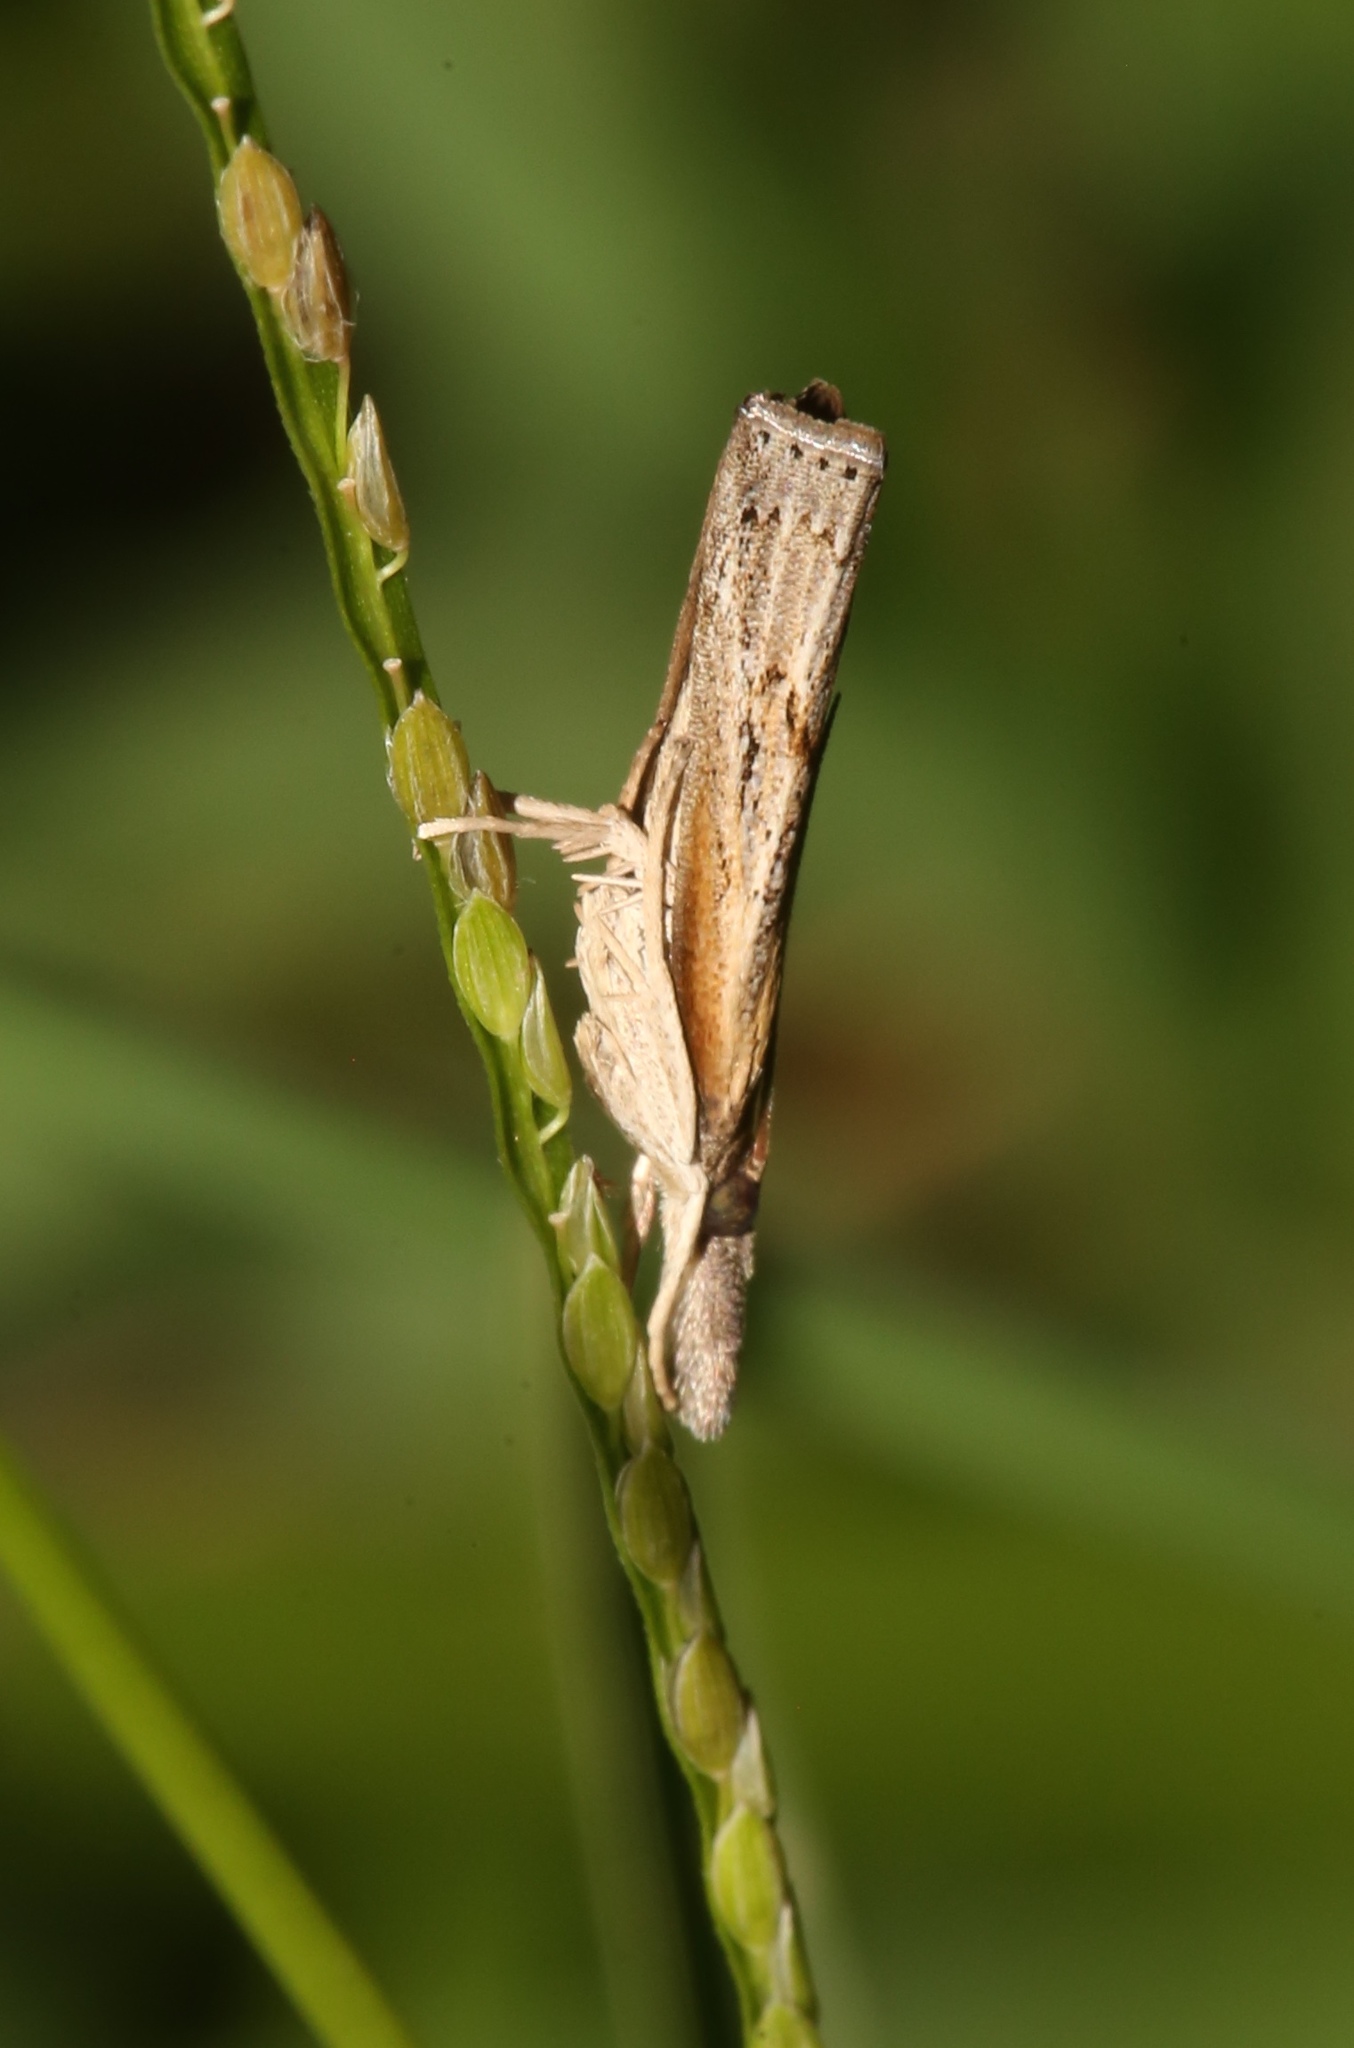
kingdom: Animalia
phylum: Arthropoda
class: Insecta
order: Lepidoptera
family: Crambidae
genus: Fissicrambus
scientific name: Fissicrambus mutabilis
